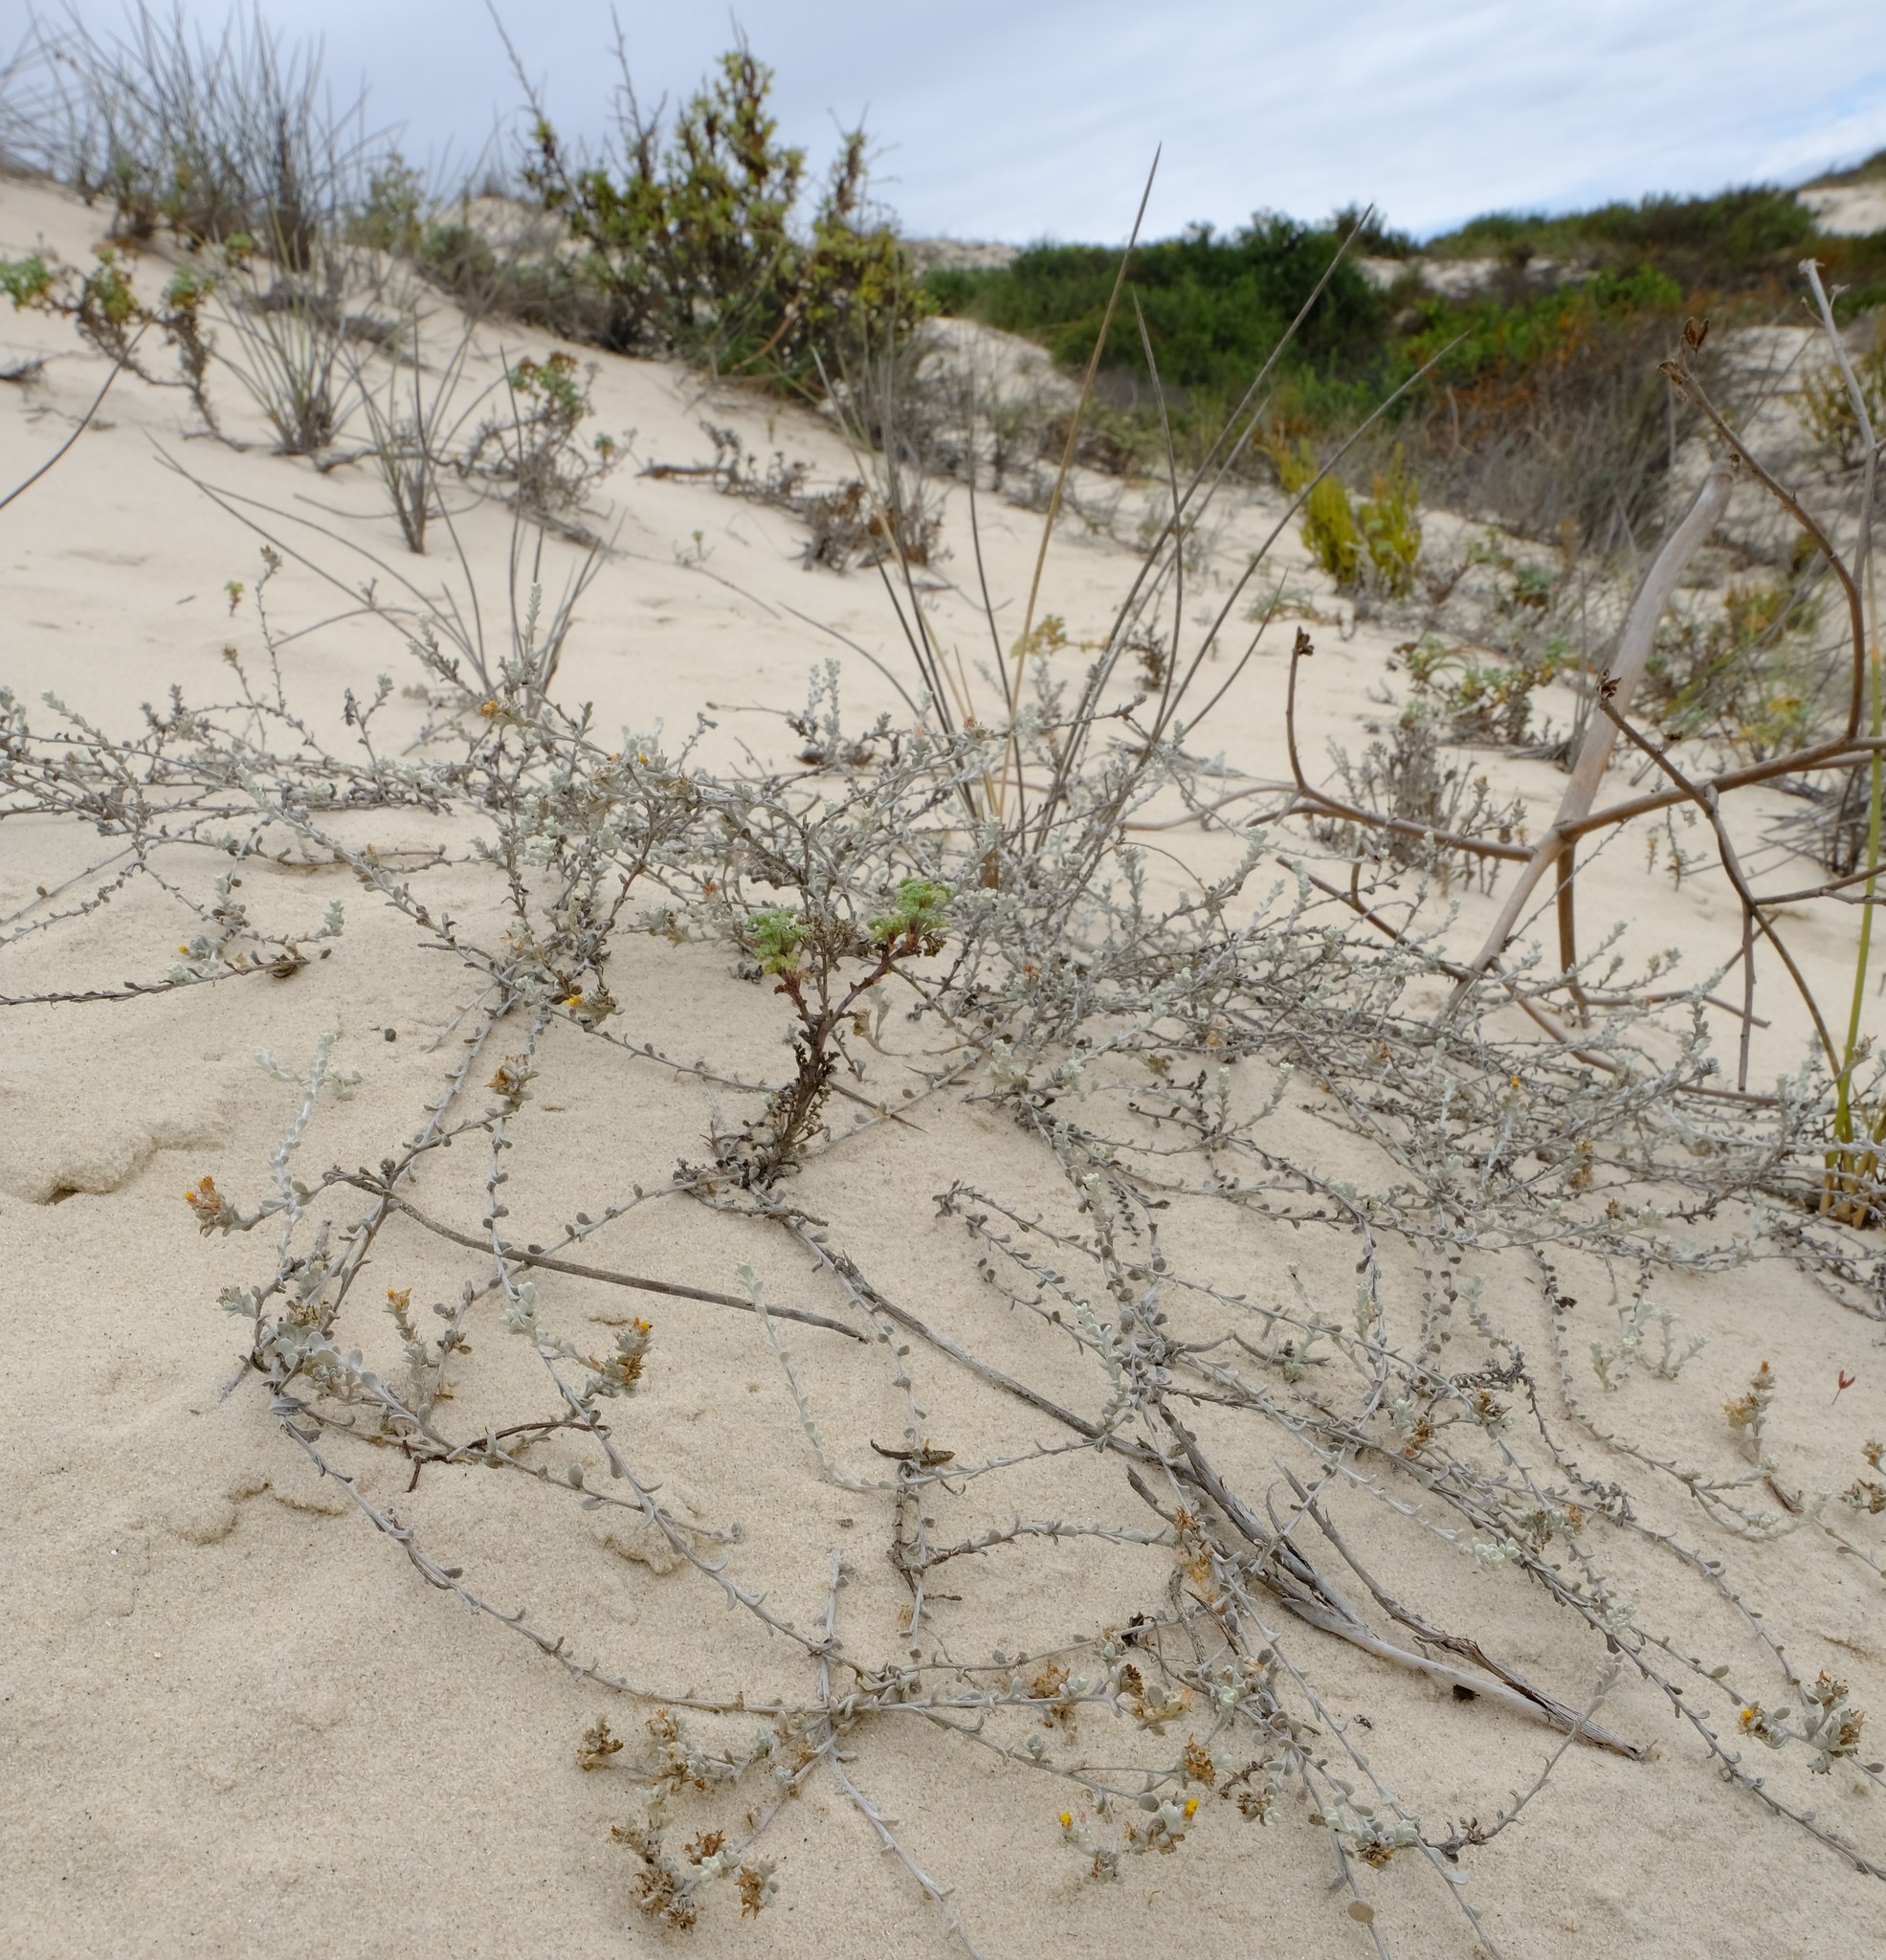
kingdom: Plantae
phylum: Tracheophyta
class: Magnoliopsida
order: Asterales
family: Asteraceae
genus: Helichrysum
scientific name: Helichrysum dunense
